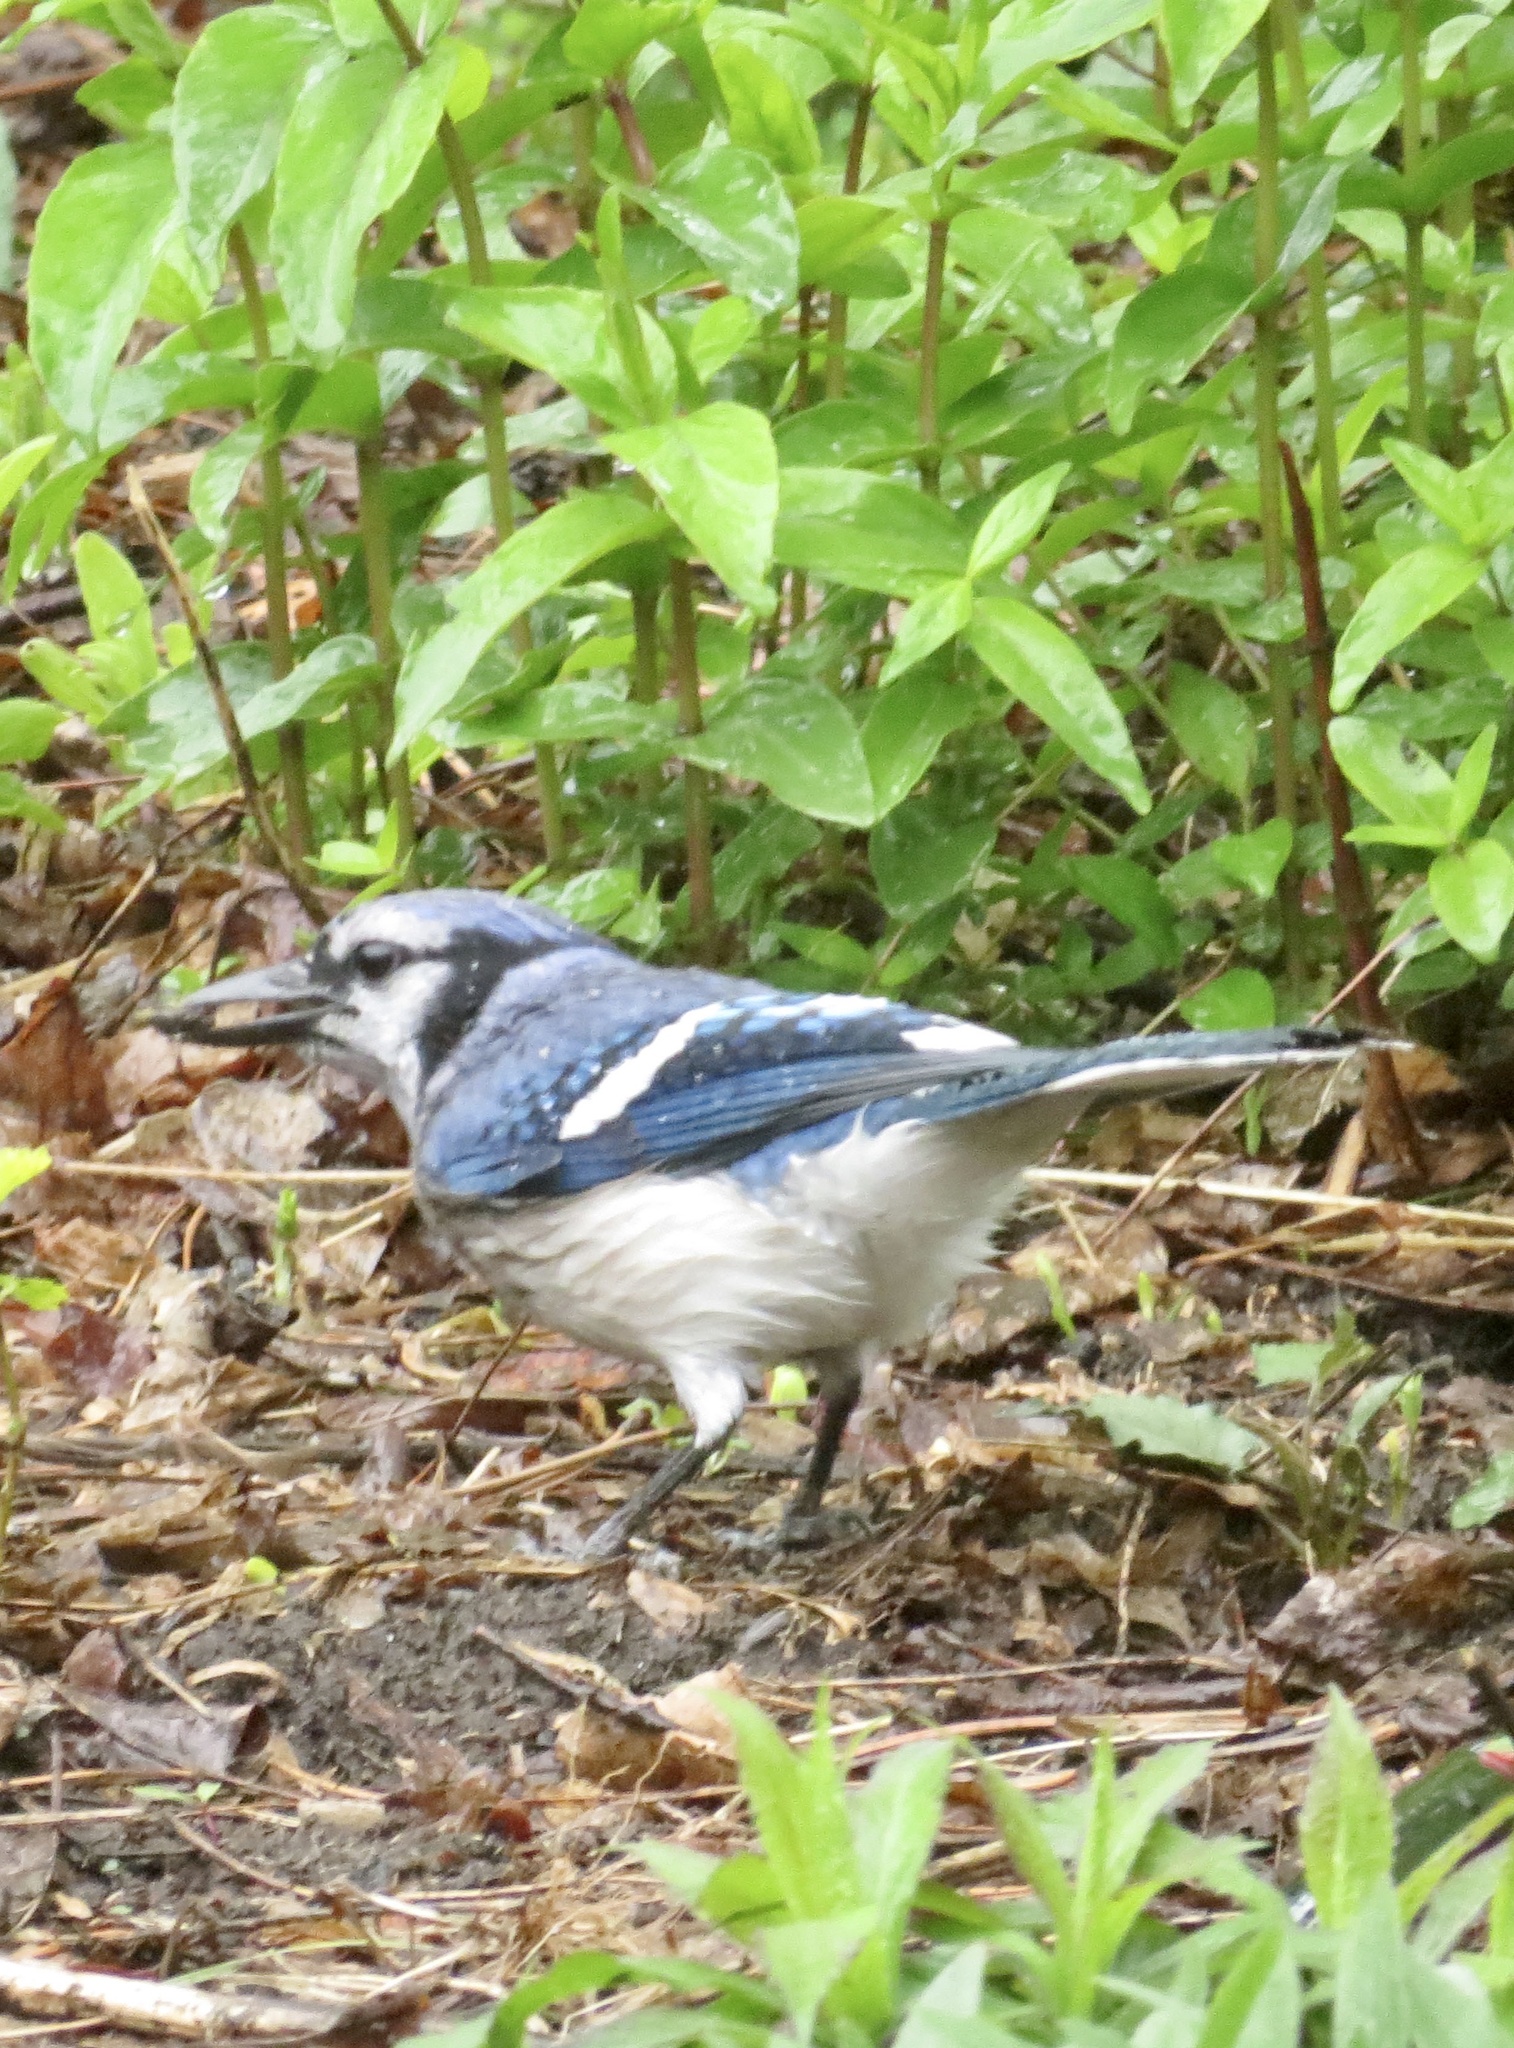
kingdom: Animalia
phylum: Chordata
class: Aves
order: Passeriformes
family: Corvidae
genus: Cyanocitta
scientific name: Cyanocitta cristata
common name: Blue jay
